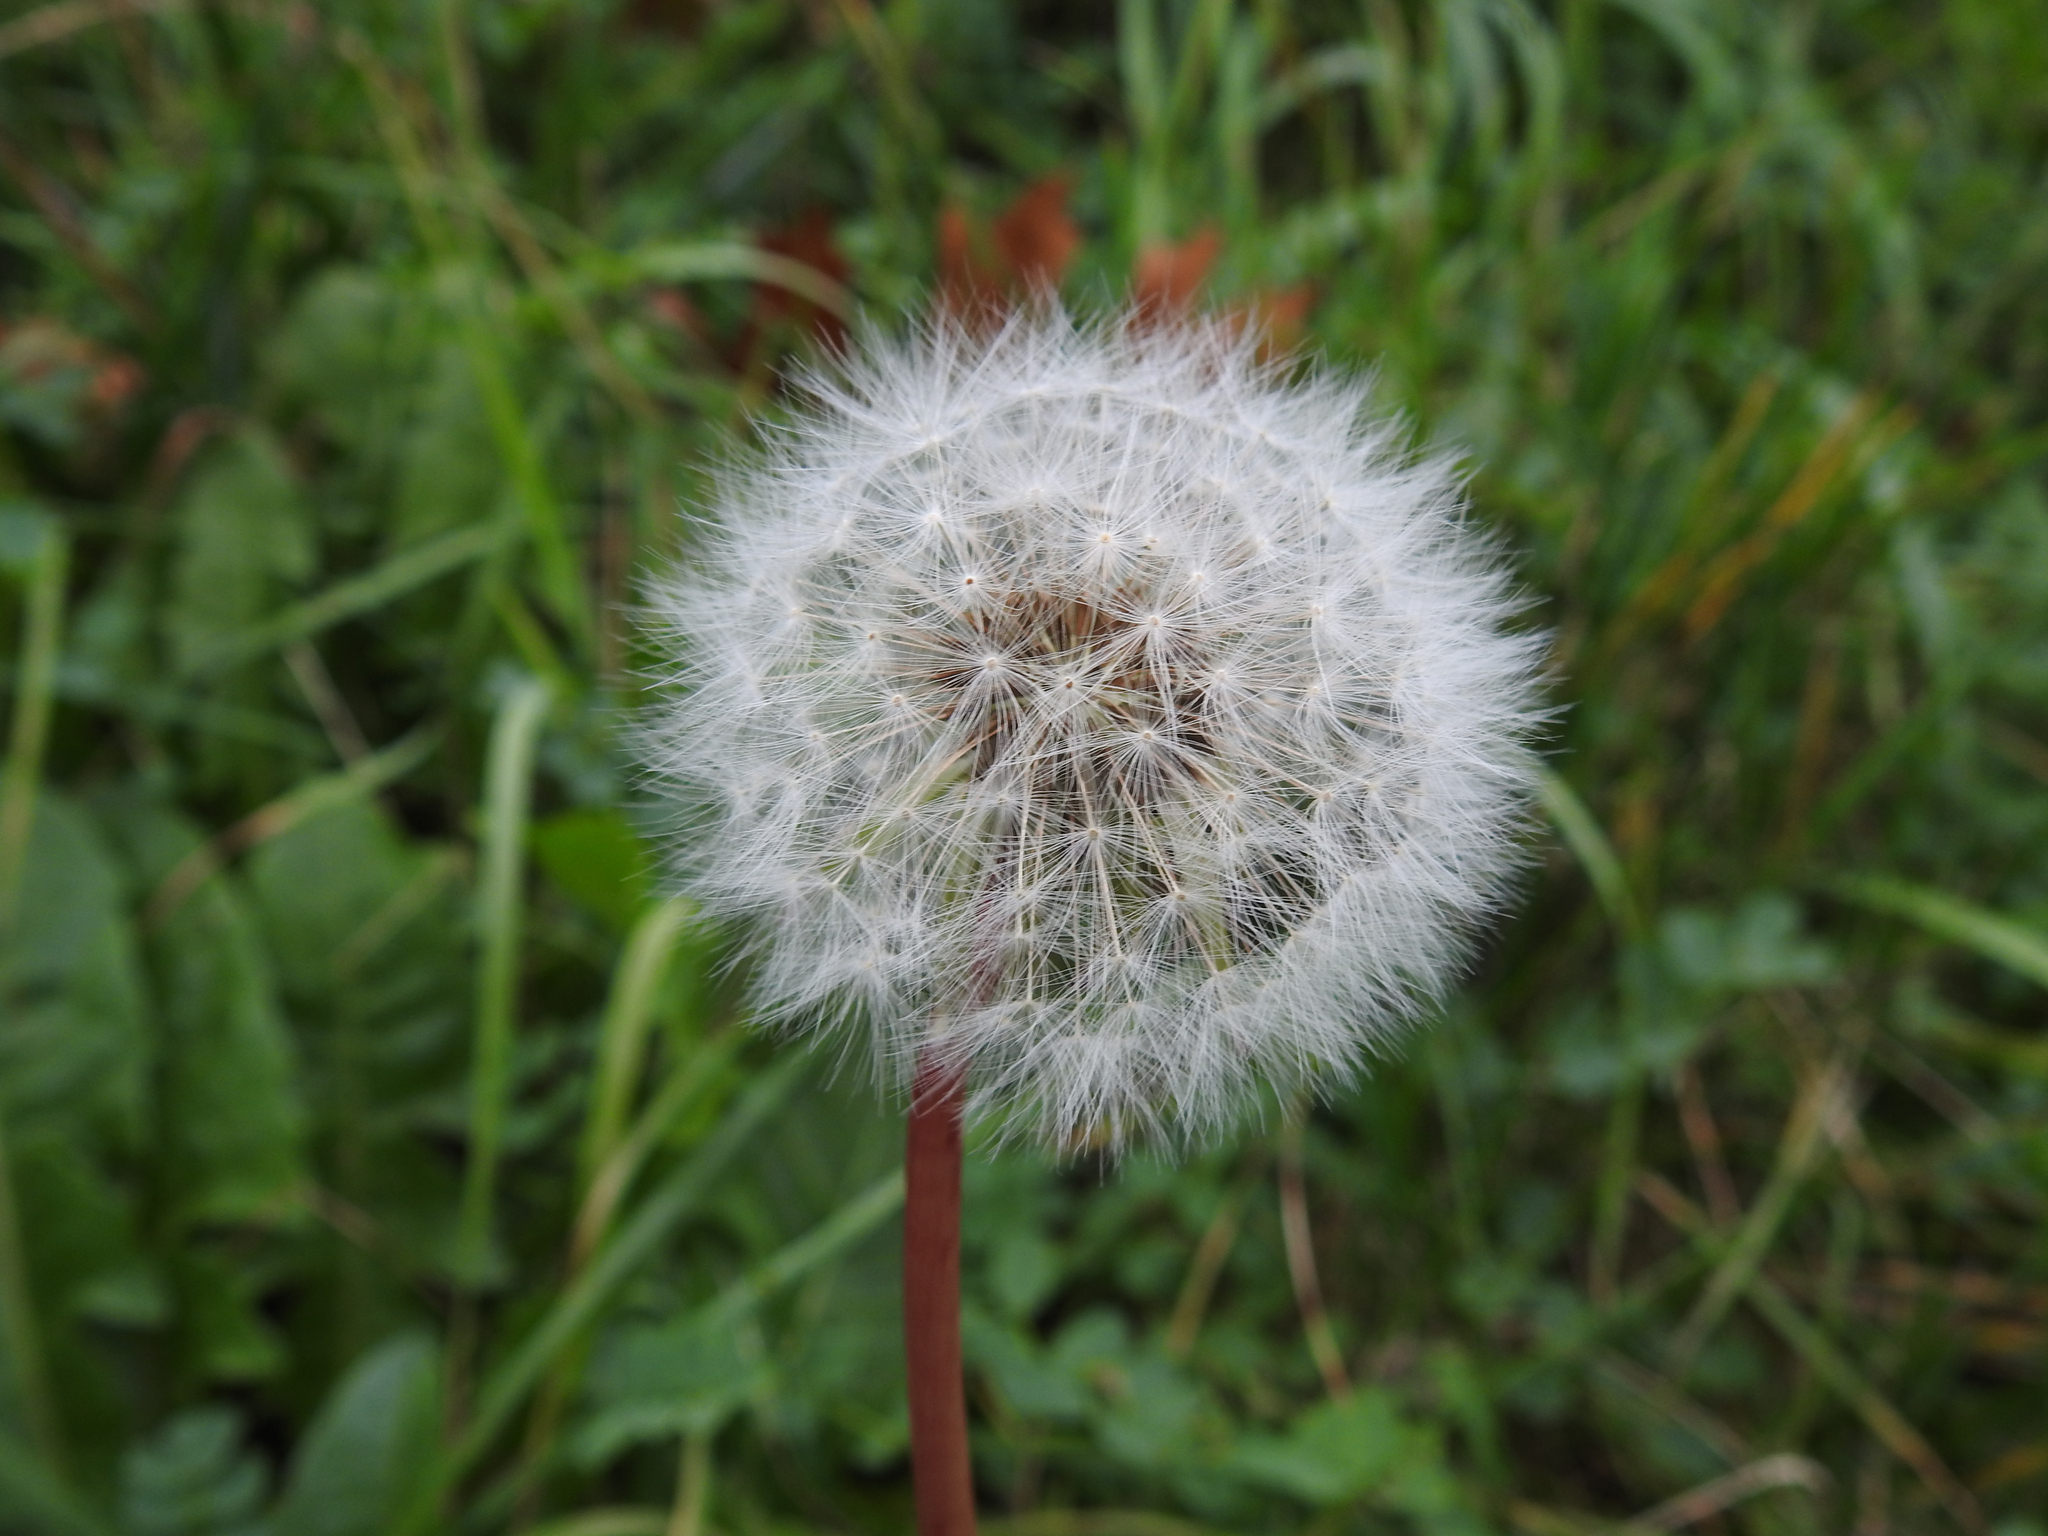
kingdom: Plantae
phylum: Tracheophyta
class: Magnoliopsida
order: Asterales
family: Asteraceae
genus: Taraxacum
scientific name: Taraxacum officinale
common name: Common dandelion
